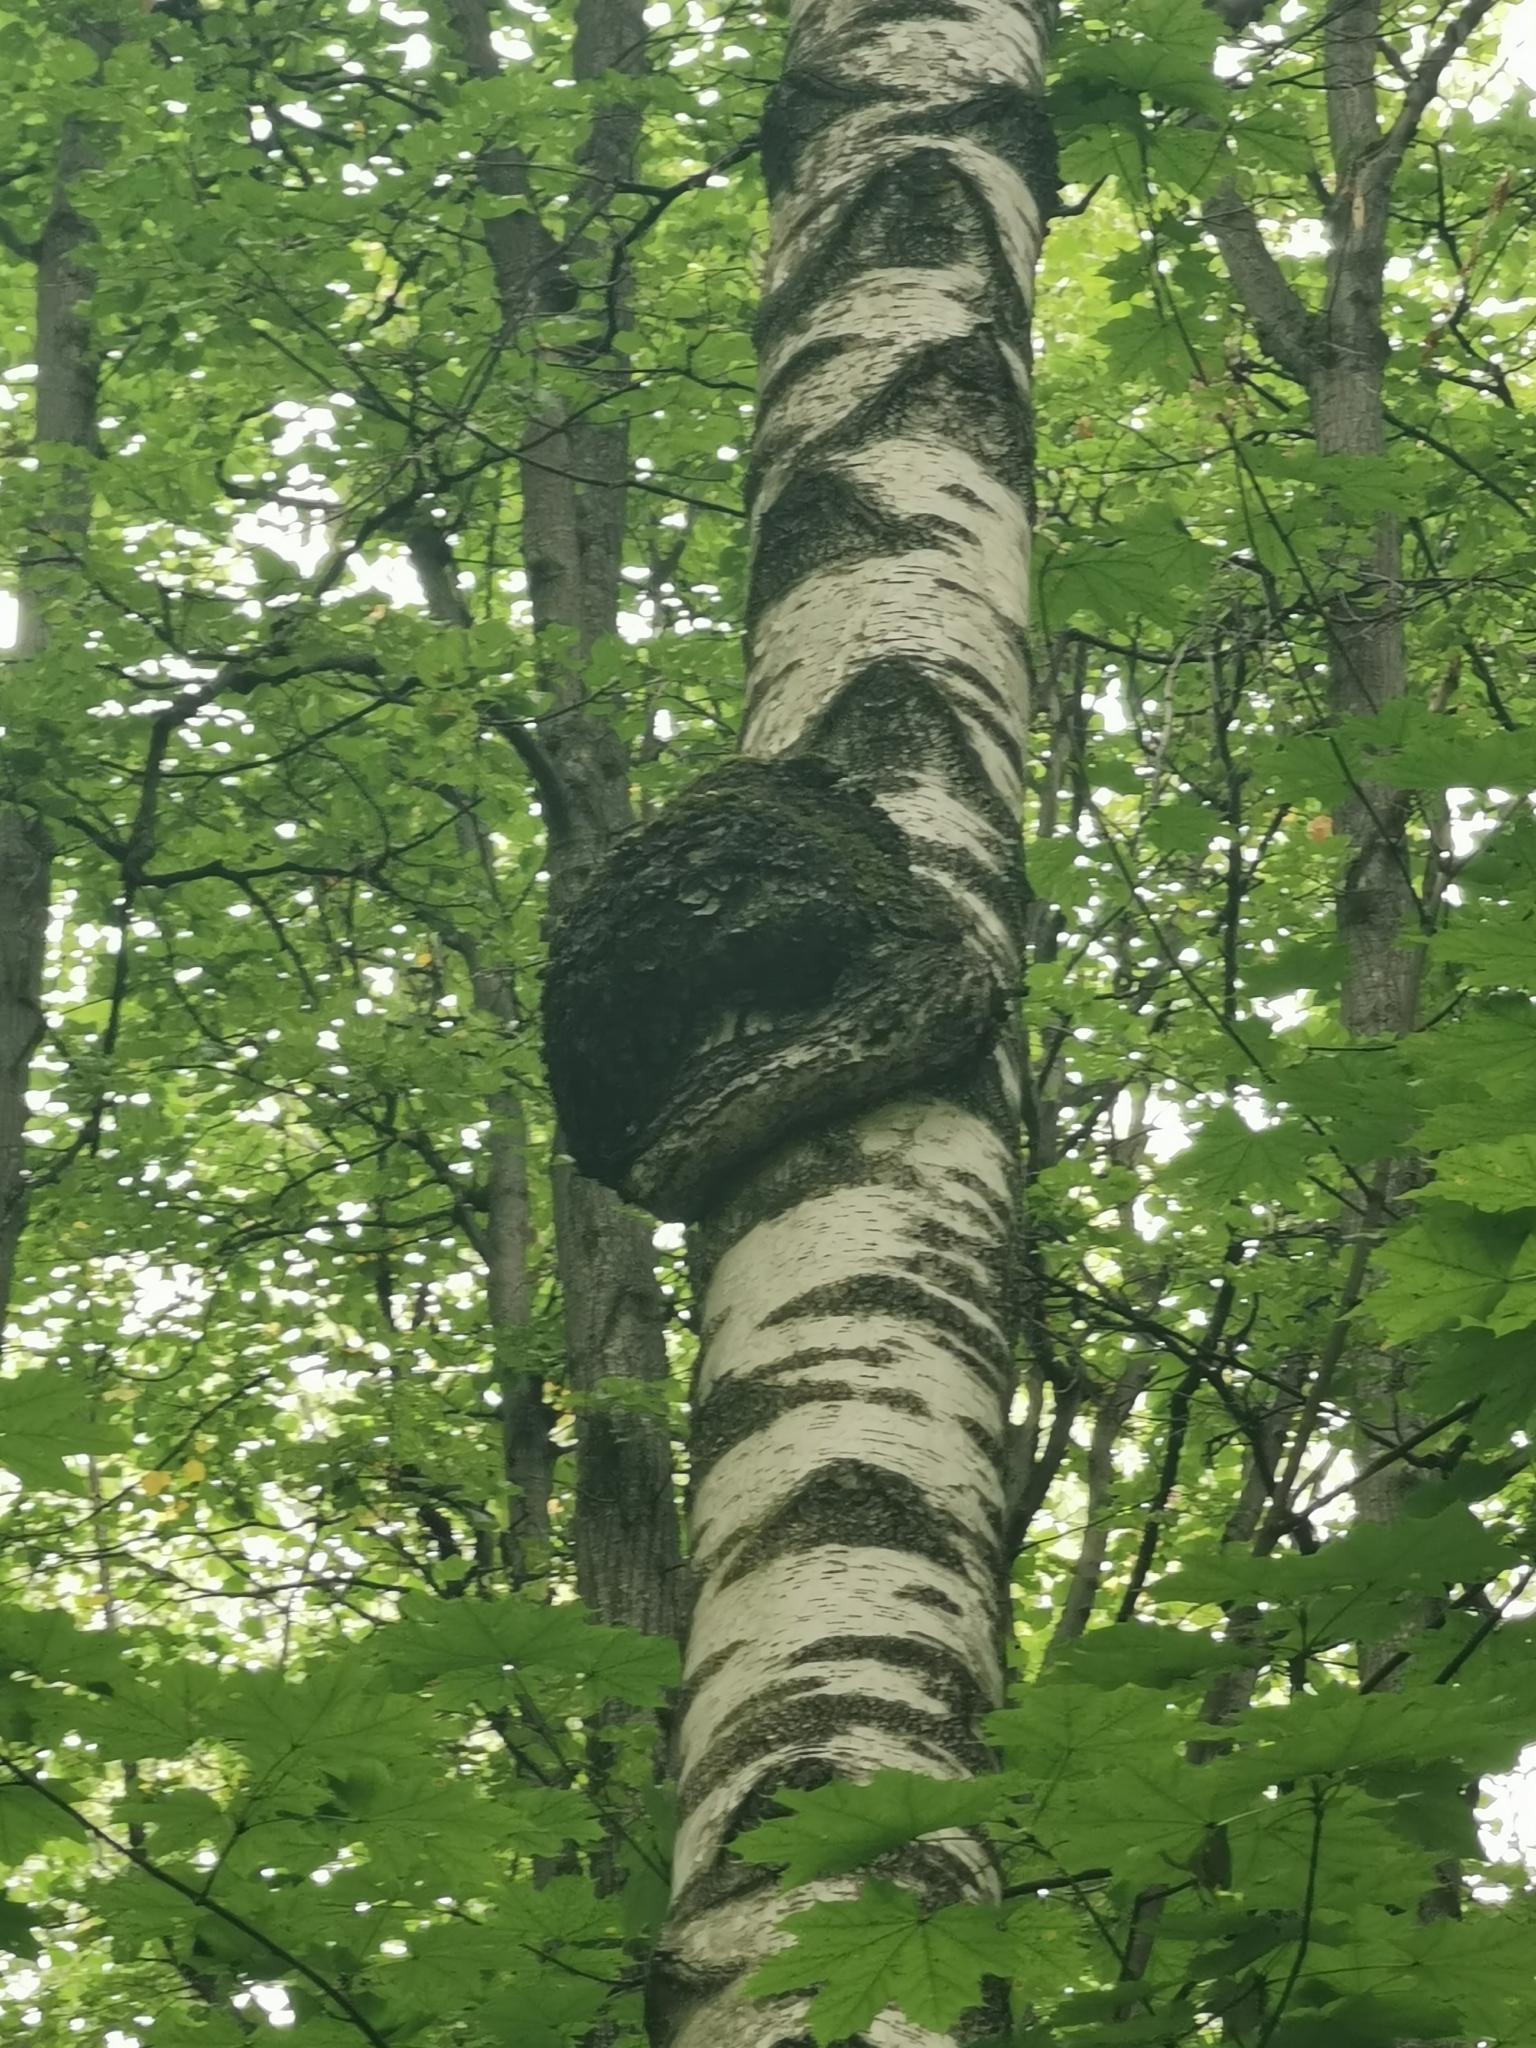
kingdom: Bacteria
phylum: Proteobacteria
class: Alphaproteobacteria
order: Rhizobiales
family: Rhizobiaceae
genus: Rhizobium
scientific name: Rhizobium Agrobacterium radiobacter
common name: Bacterial crown gall
